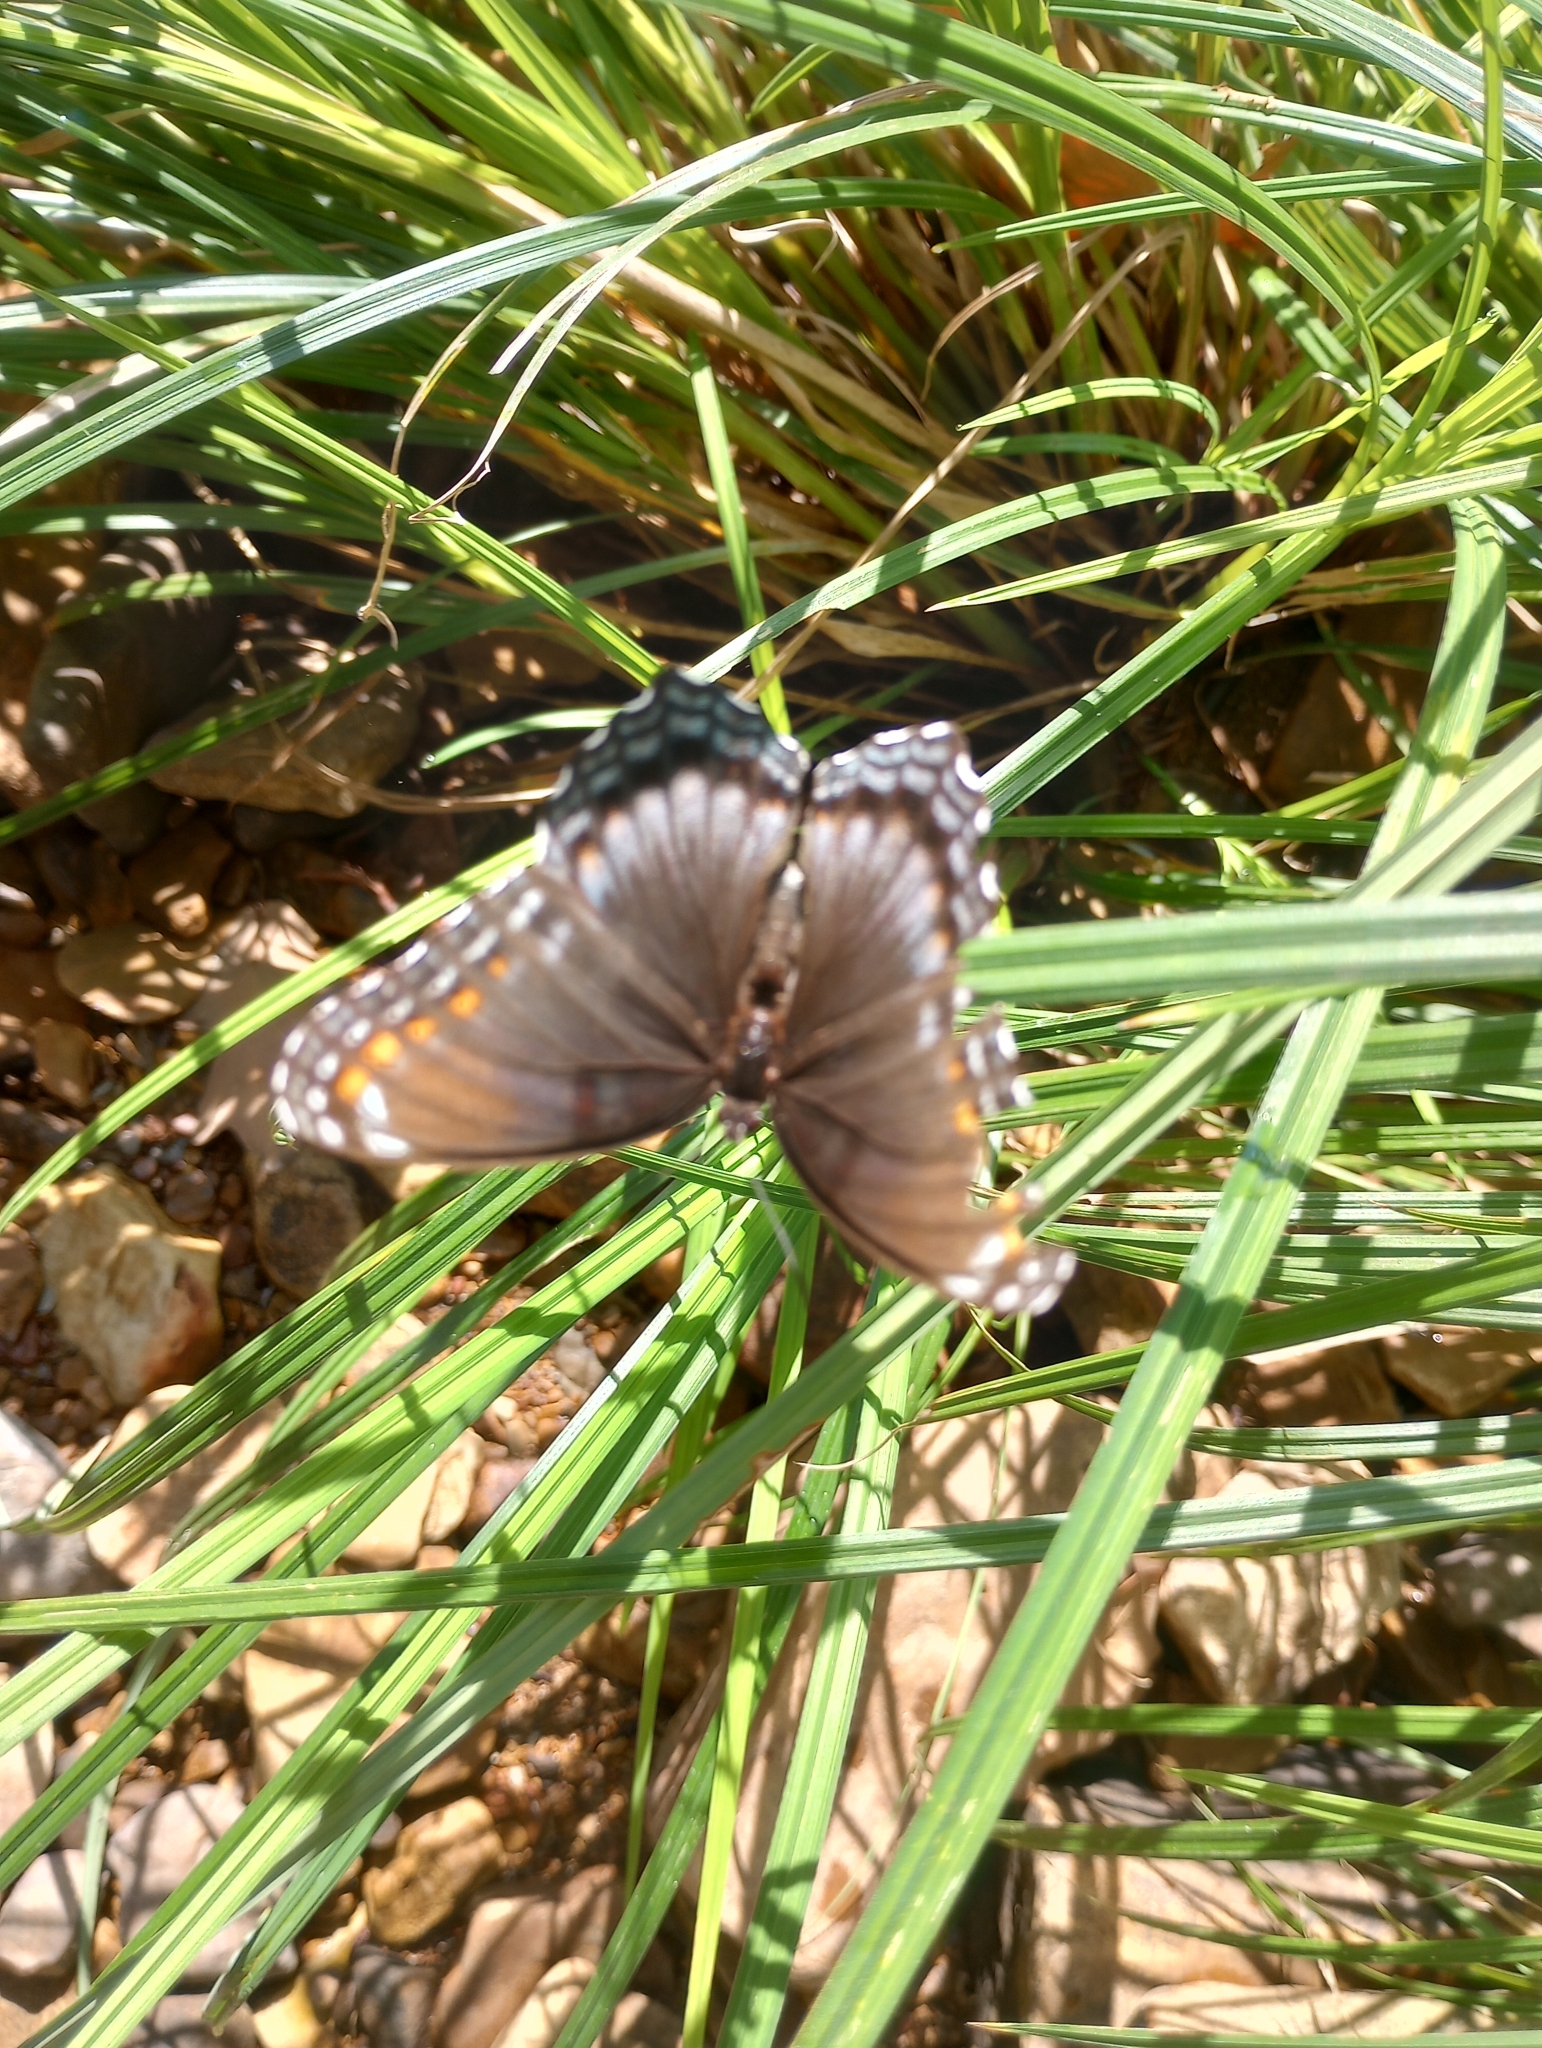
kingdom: Animalia
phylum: Arthropoda
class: Insecta
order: Lepidoptera
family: Nymphalidae
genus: Limenitis
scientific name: Limenitis astyanax
